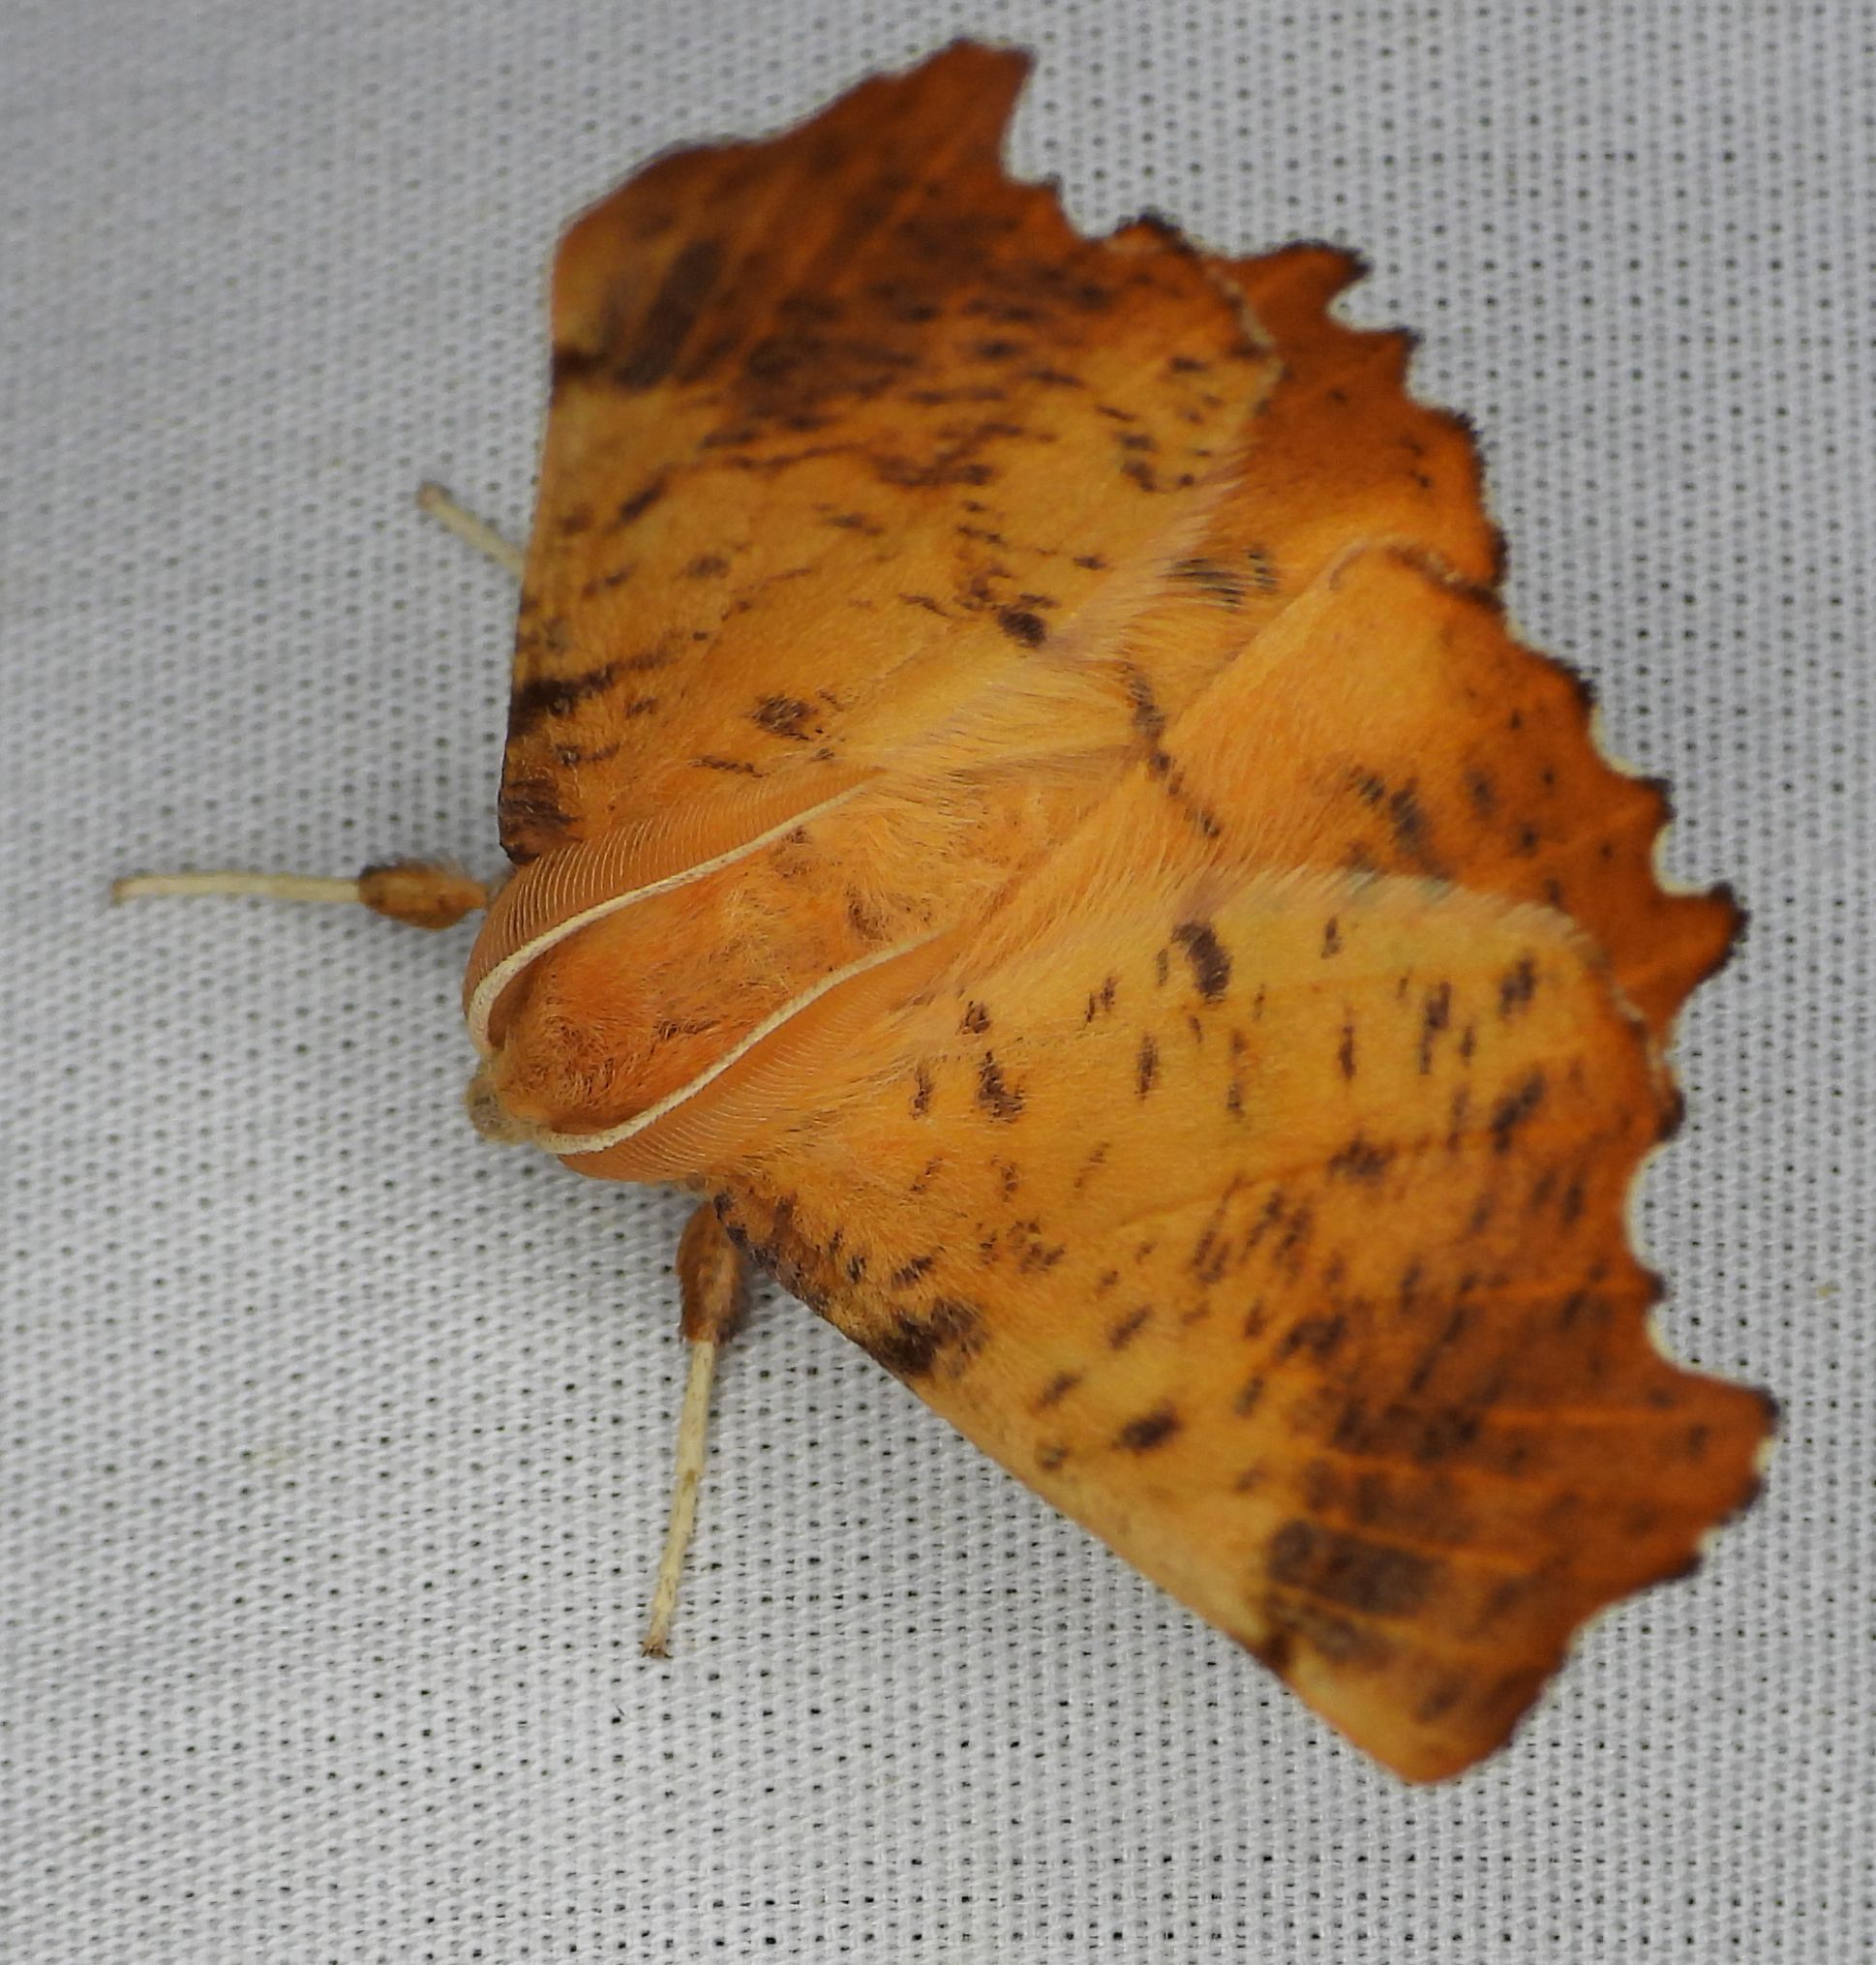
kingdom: Animalia
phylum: Arthropoda
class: Insecta
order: Lepidoptera
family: Geometridae
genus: Ennomos
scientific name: Ennomos magnaria
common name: Maple spanworm
